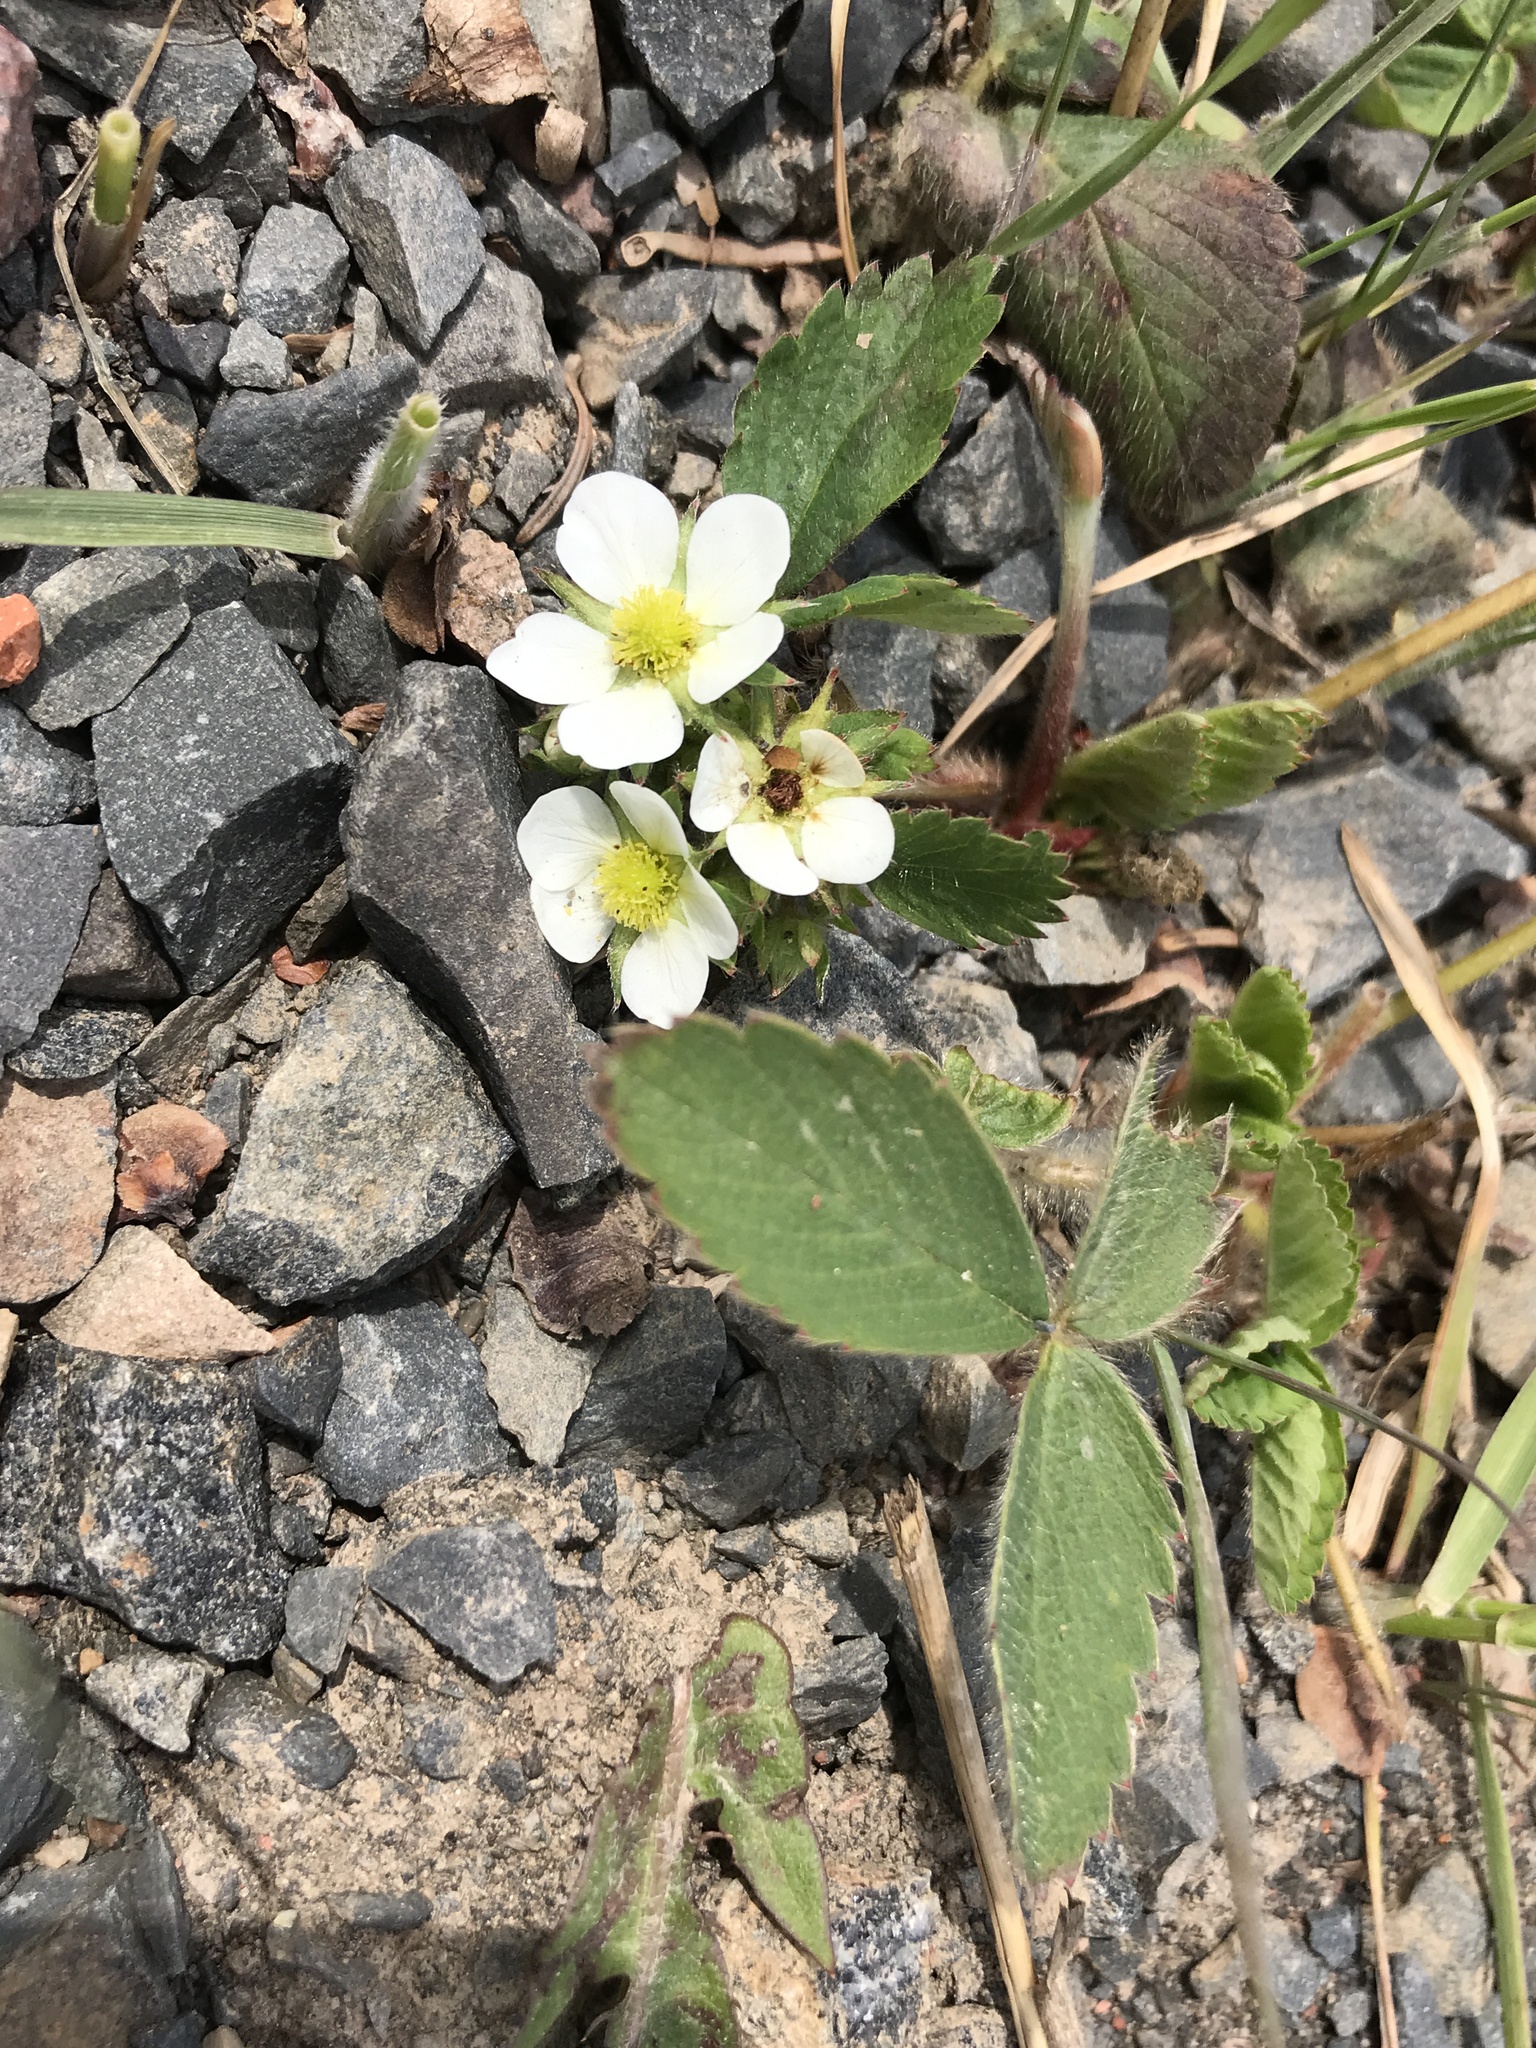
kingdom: Plantae
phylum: Tracheophyta
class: Magnoliopsida
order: Rosales
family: Rosaceae
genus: Fragaria
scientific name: Fragaria virginiana
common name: Thickleaved wild strawberry
